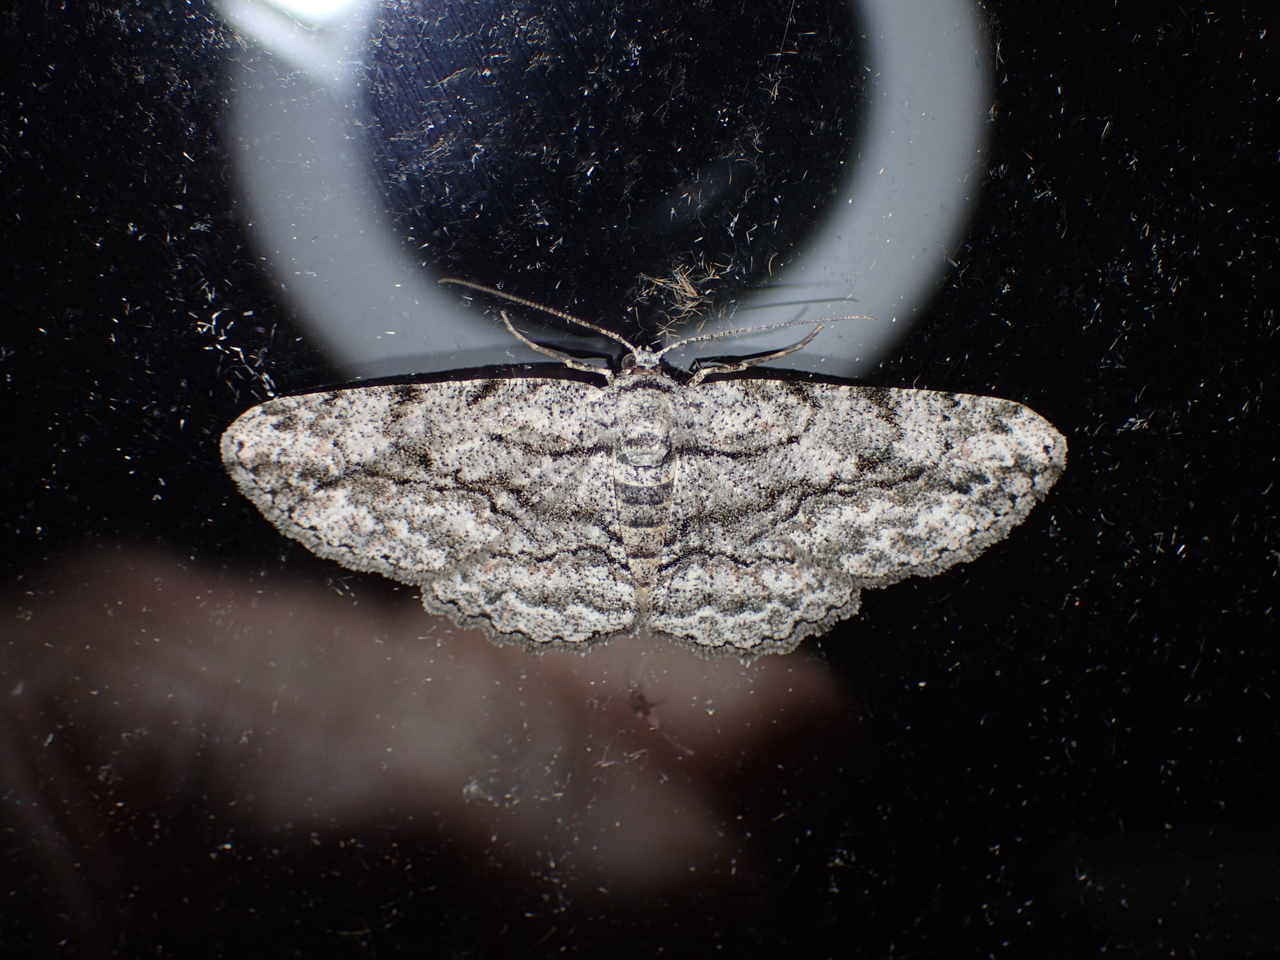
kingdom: Animalia
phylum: Arthropoda
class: Insecta
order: Lepidoptera
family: Geometridae
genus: Anavitrinella
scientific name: Anavitrinella pampinaria
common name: Common gray
